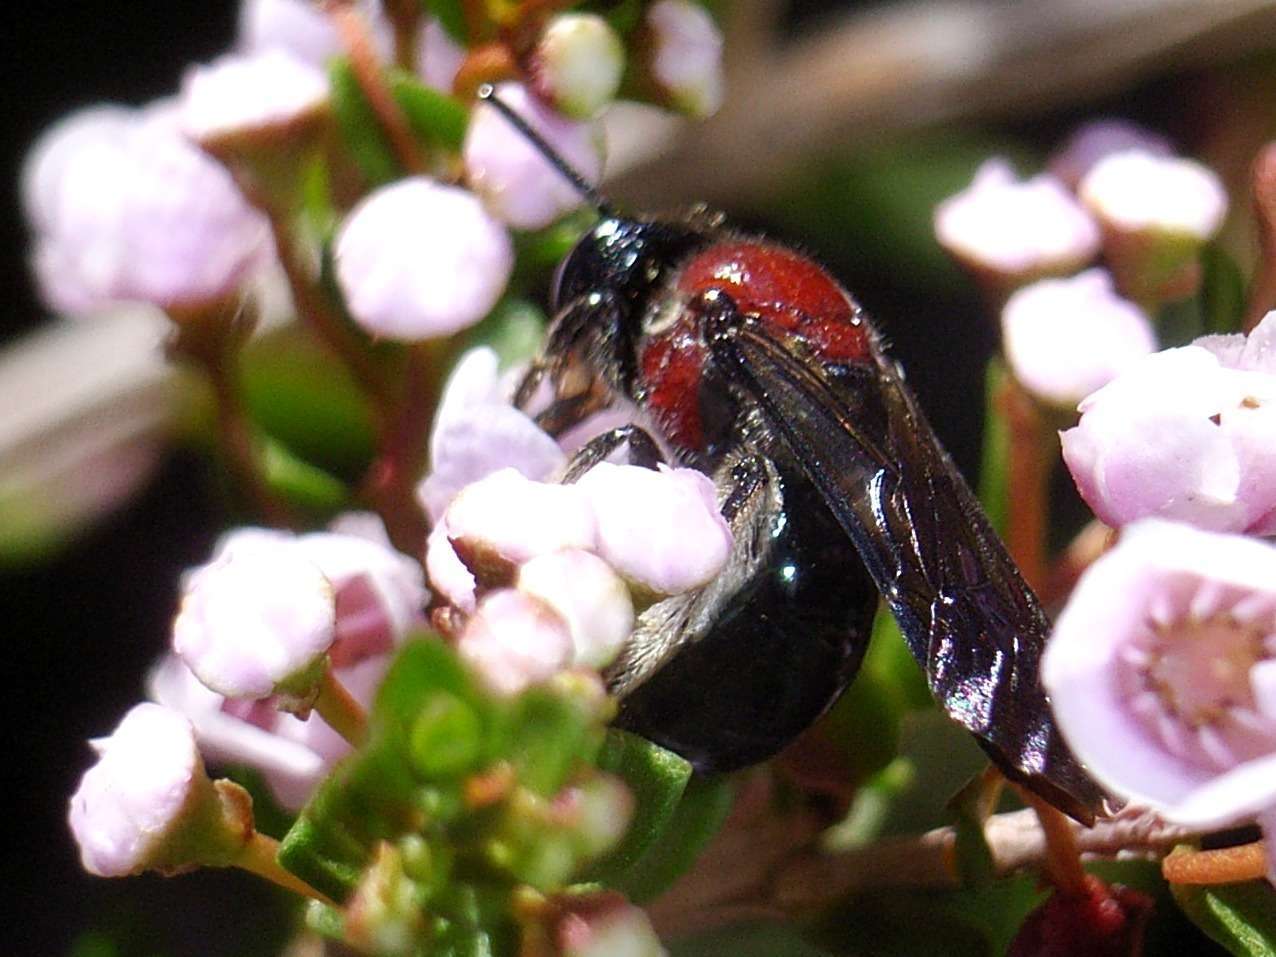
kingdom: Animalia
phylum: Arthropoda
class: Insecta
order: Hymenoptera
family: Colletidae
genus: Callomelitta
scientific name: Callomelitta picta
